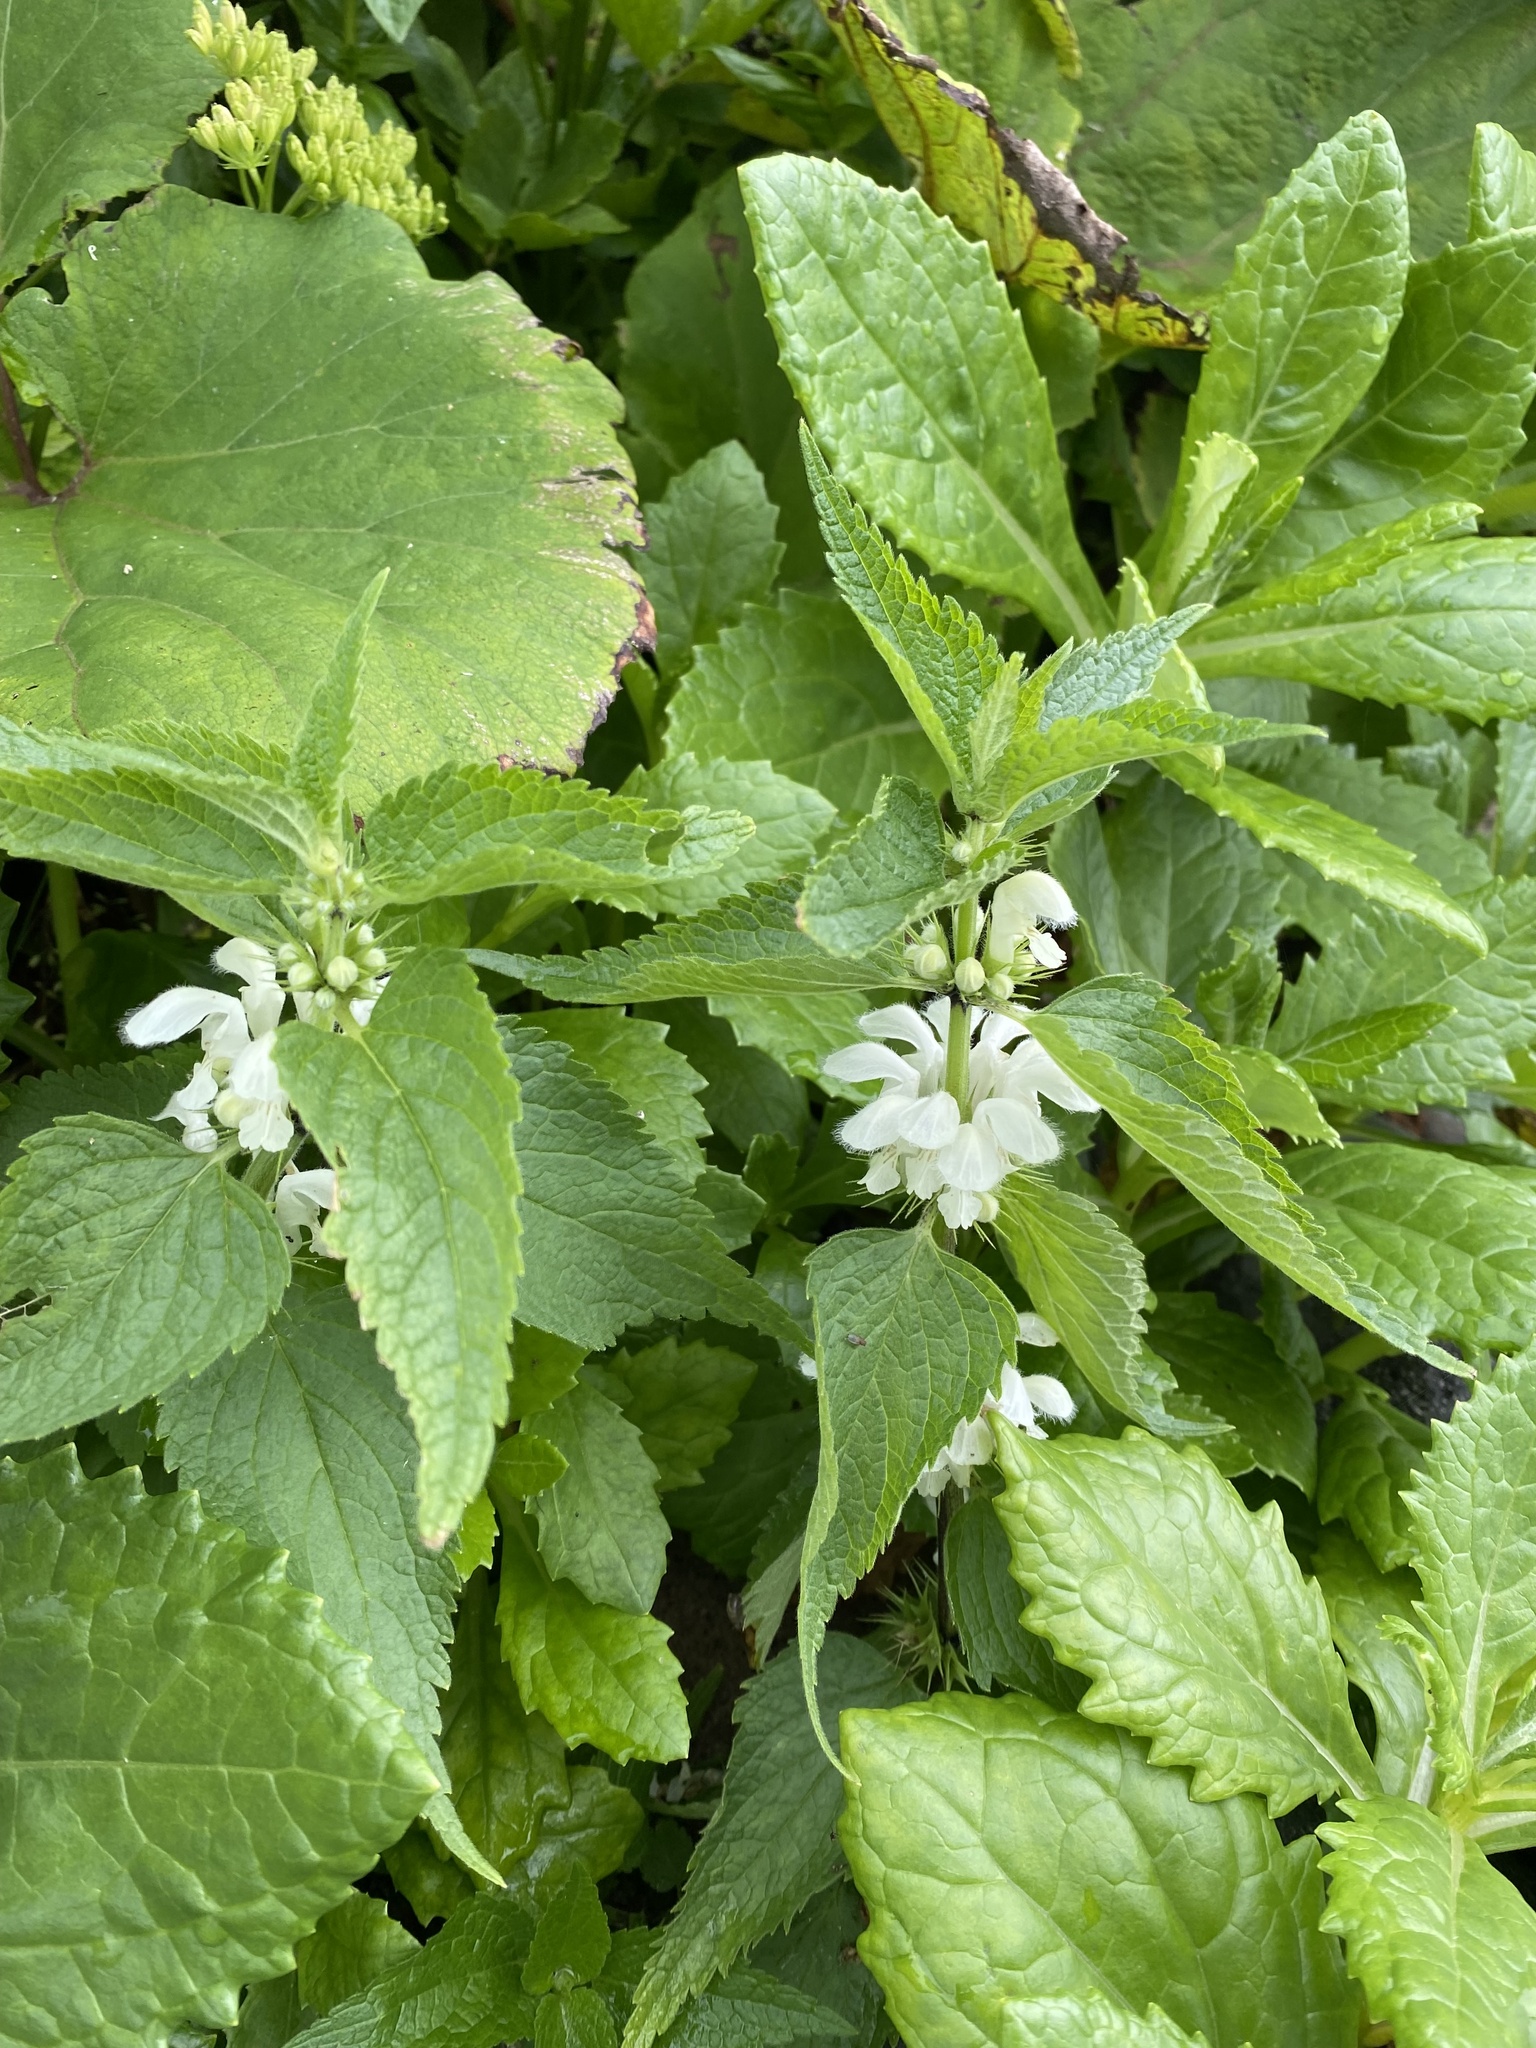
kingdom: Plantae
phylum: Tracheophyta
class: Magnoliopsida
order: Lamiales
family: Lamiaceae
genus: Lamium
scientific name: Lamium album
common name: White dead-nettle
